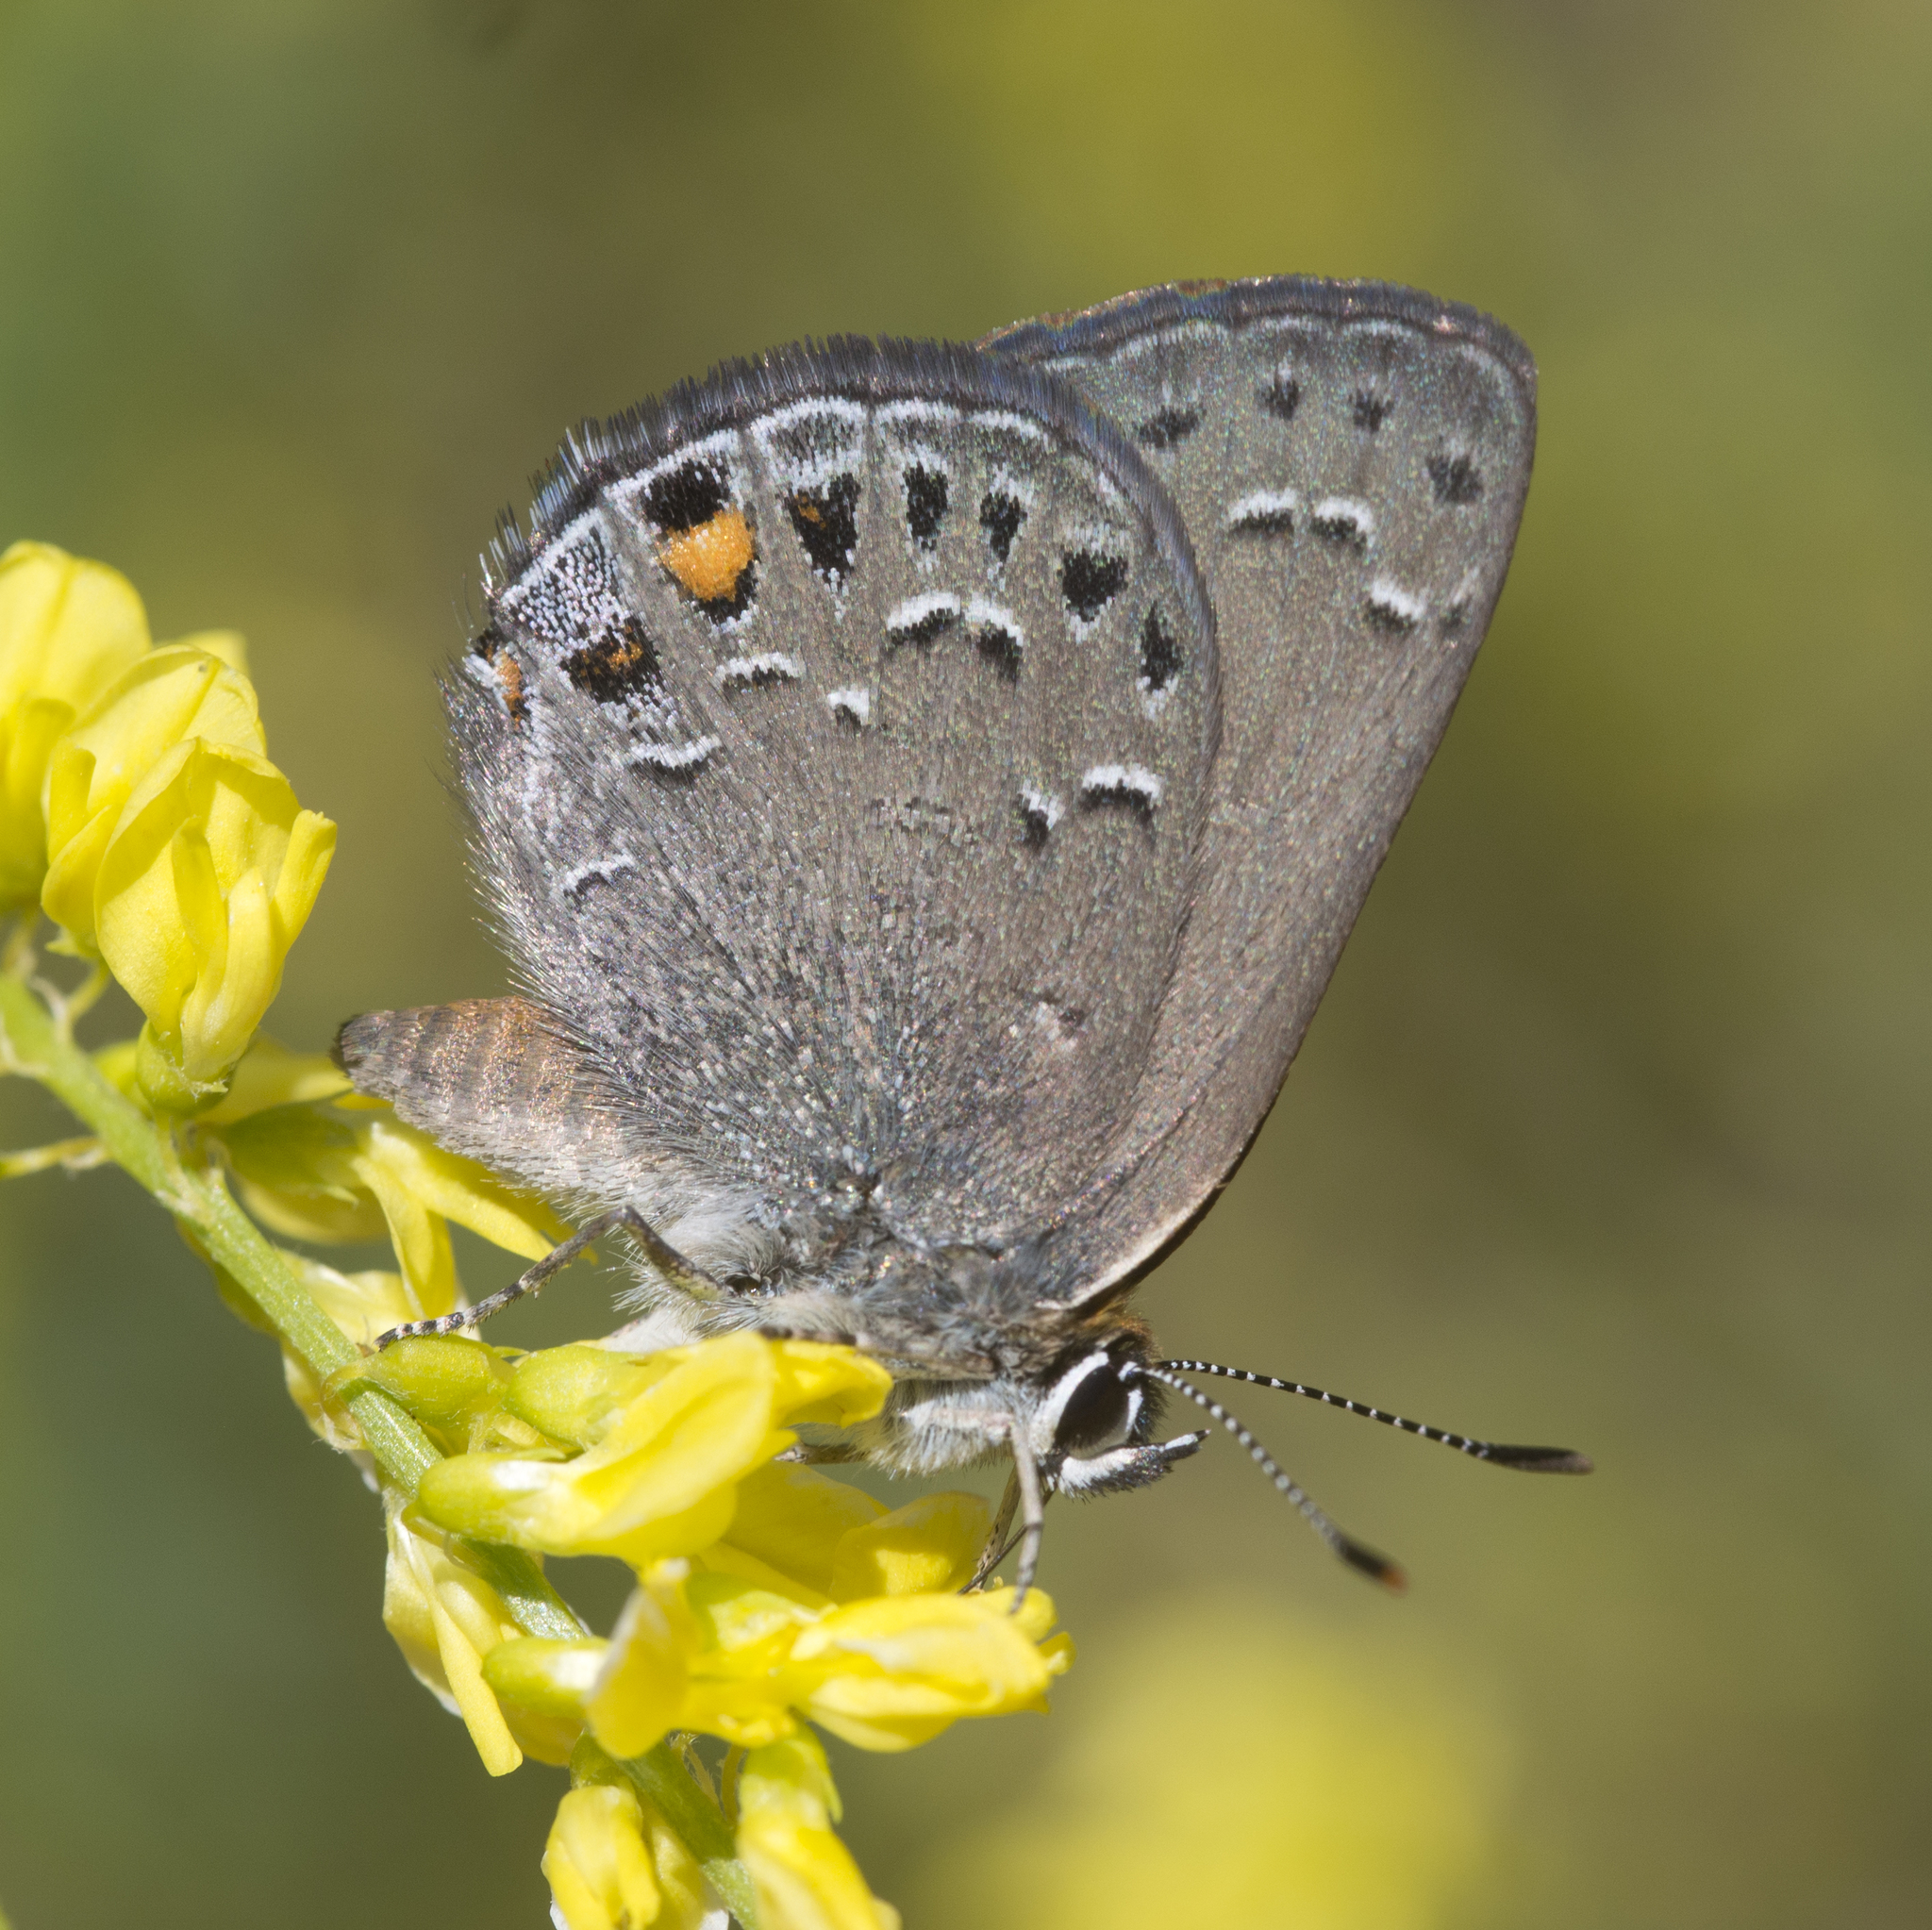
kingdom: Animalia
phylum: Arthropoda
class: Insecta
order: Lepidoptera
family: Lycaenidae
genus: Satyrium
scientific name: Satyrium behrii
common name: Behr's hairstreak
